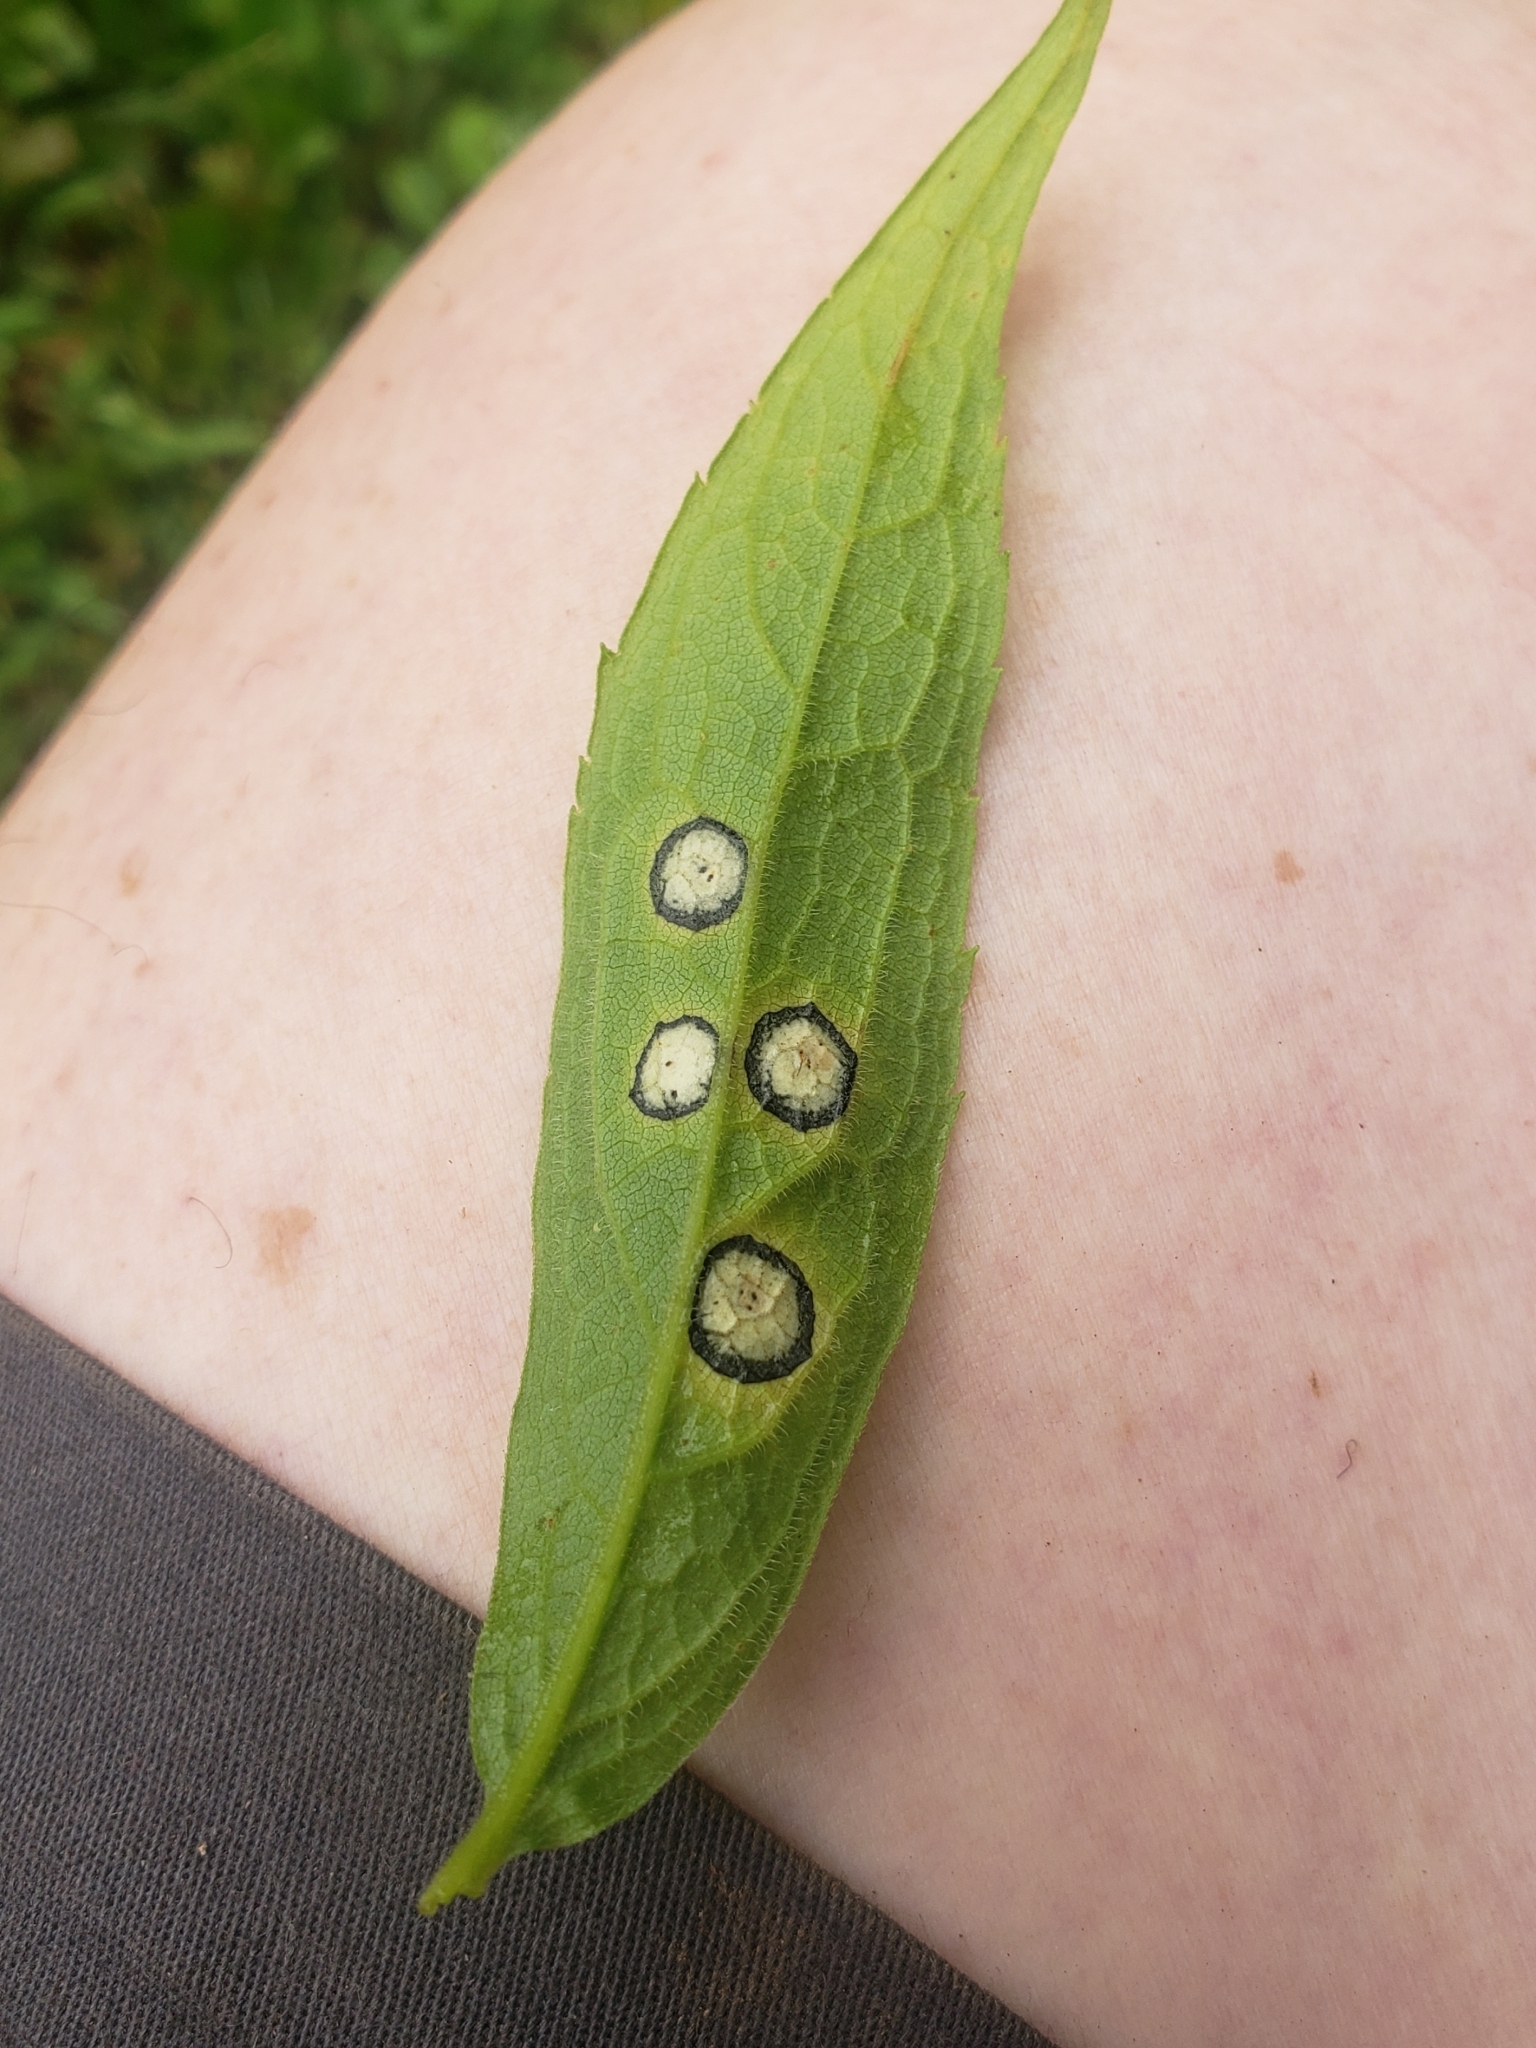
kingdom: Animalia
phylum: Arthropoda
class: Insecta
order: Diptera
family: Cecidomyiidae
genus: Asteromyia
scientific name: Asteromyia carbonifera
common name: Carbonifera goldenrod gall midge
